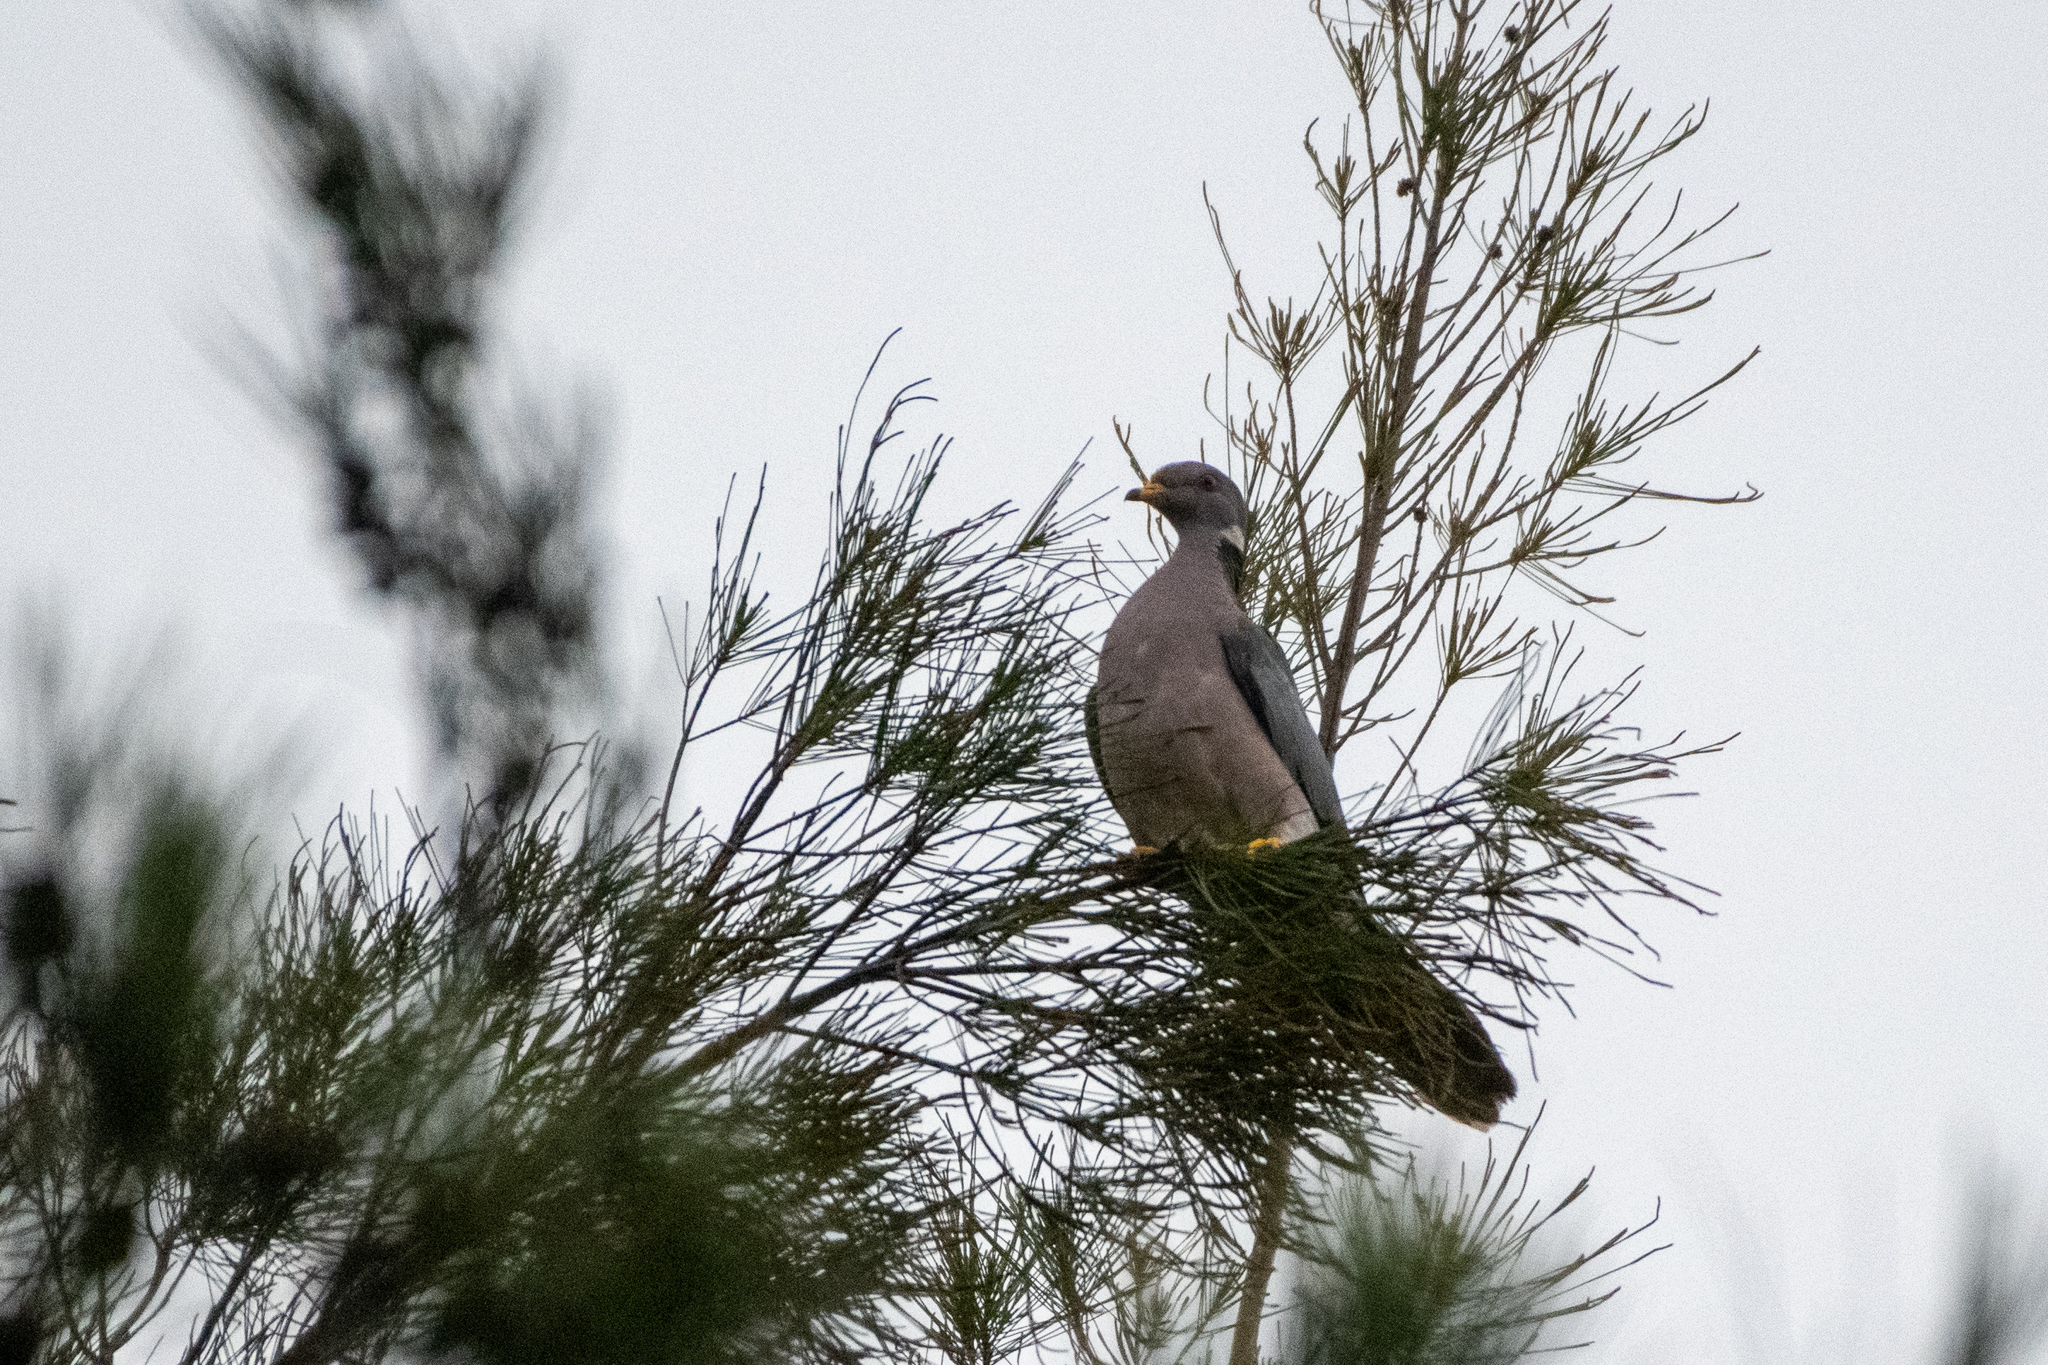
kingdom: Animalia
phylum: Chordata
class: Aves
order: Columbiformes
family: Columbidae
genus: Patagioenas
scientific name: Patagioenas fasciata
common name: Band-tailed pigeon
